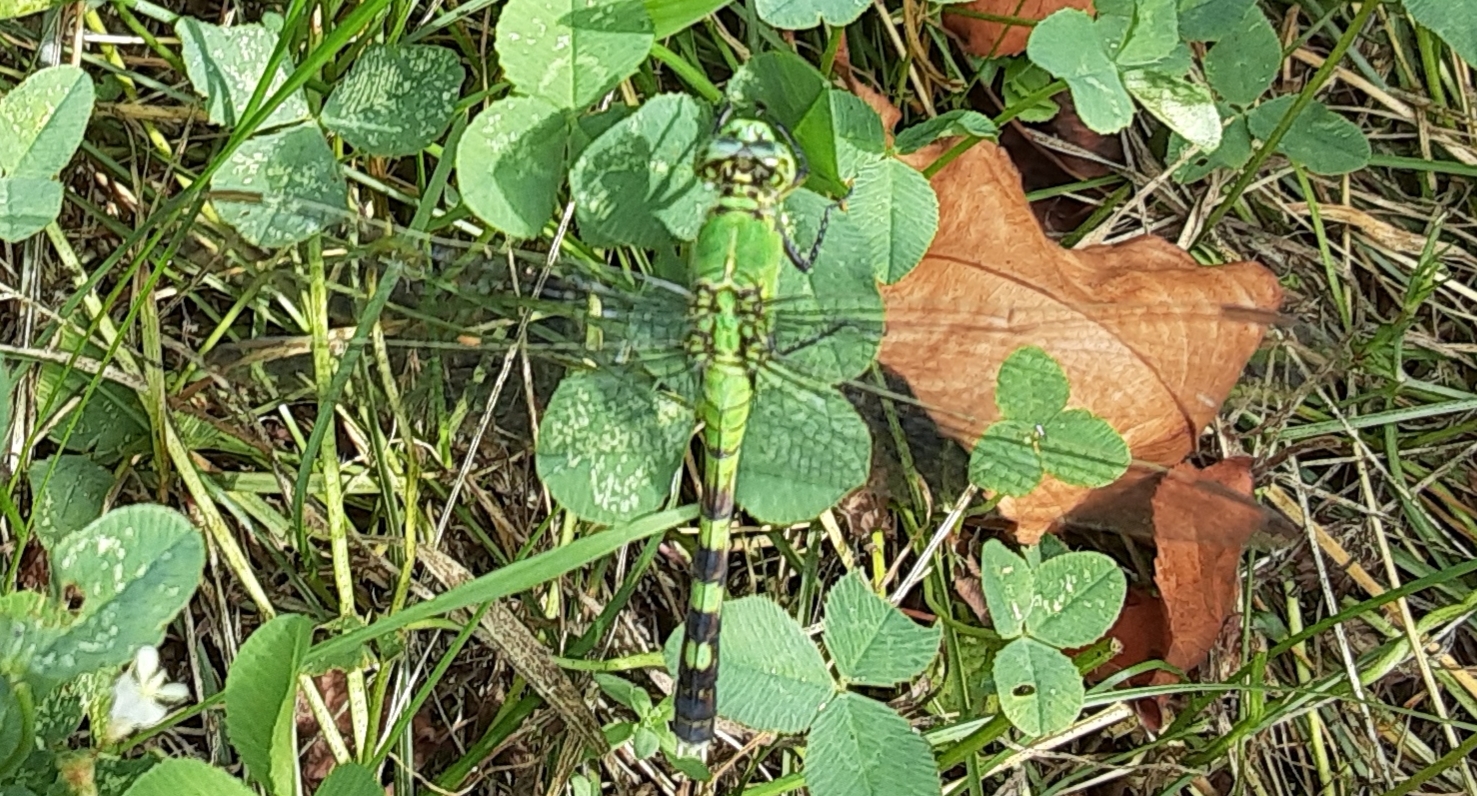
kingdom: Animalia
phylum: Arthropoda
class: Insecta
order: Odonata
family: Libellulidae
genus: Erythemis
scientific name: Erythemis simplicicollis
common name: Eastern pondhawk
